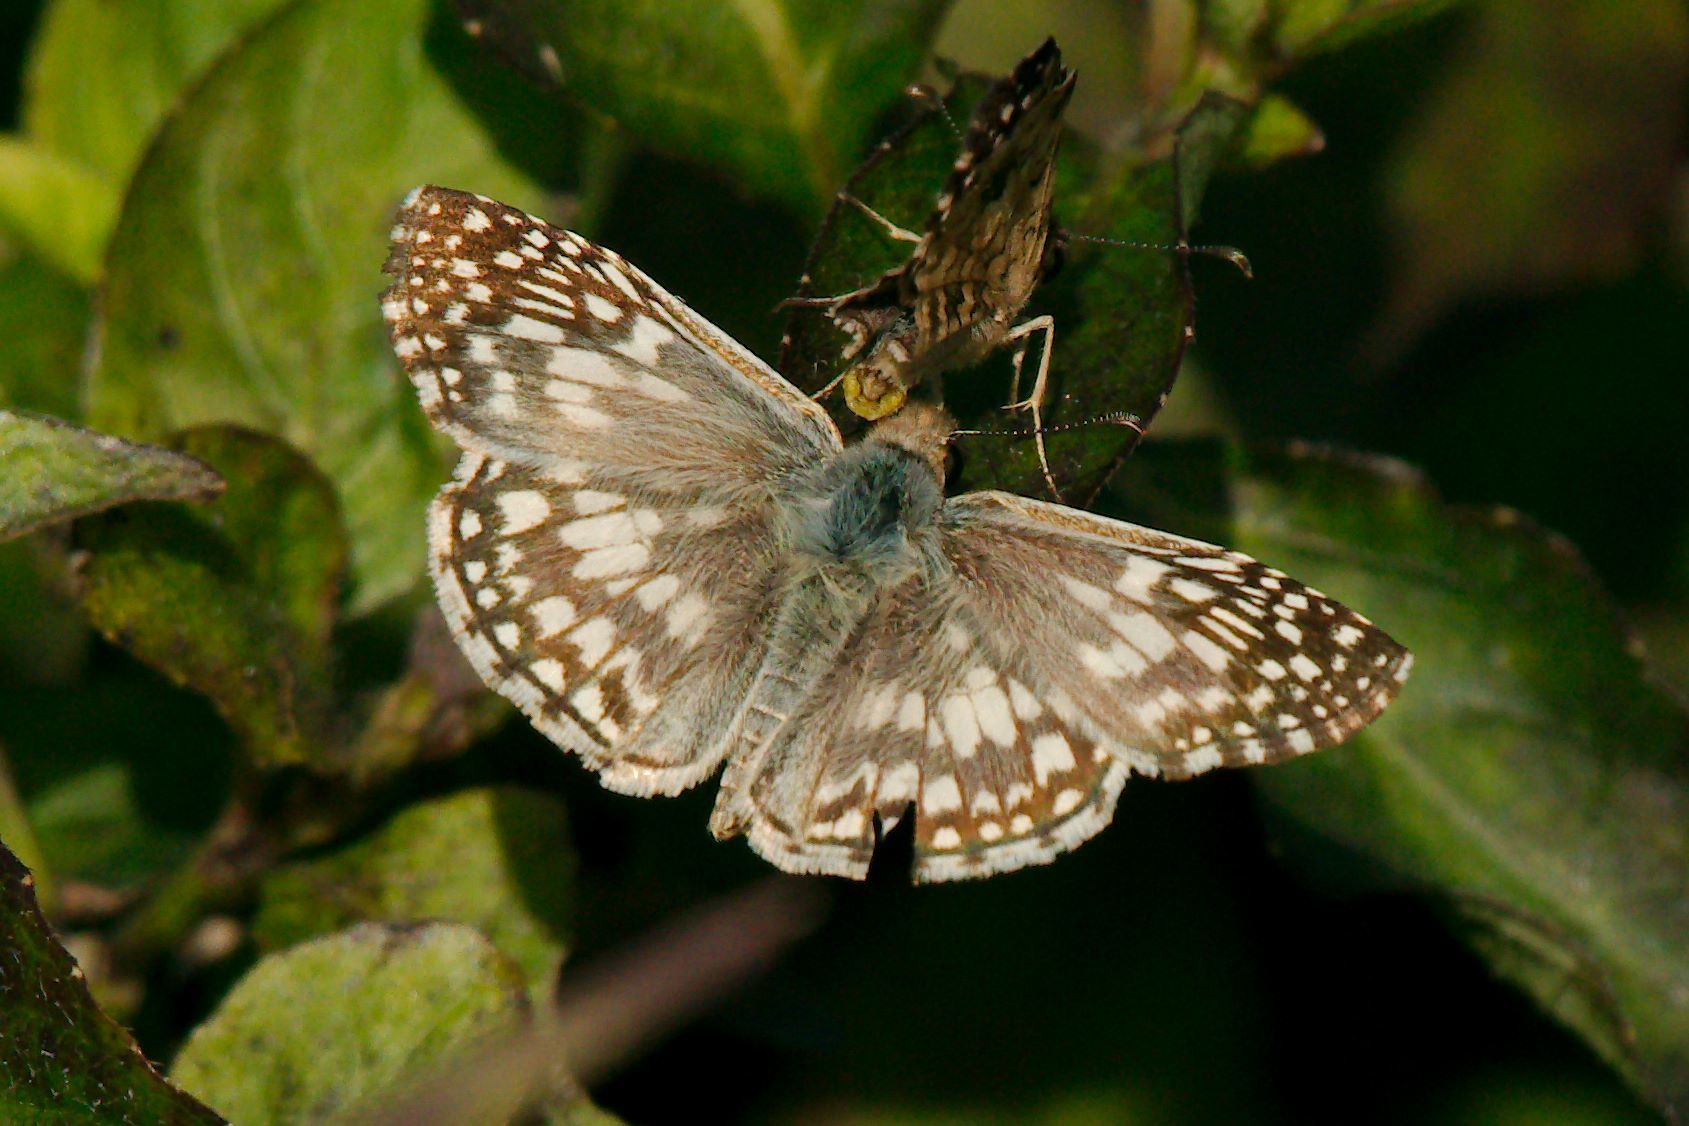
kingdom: Animalia
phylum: Arthropoda
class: Insecta
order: Lepidoptera
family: Hesperiidae
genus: Pyrgus
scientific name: Pyrgus oileus
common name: Tropical checkered-skipper
